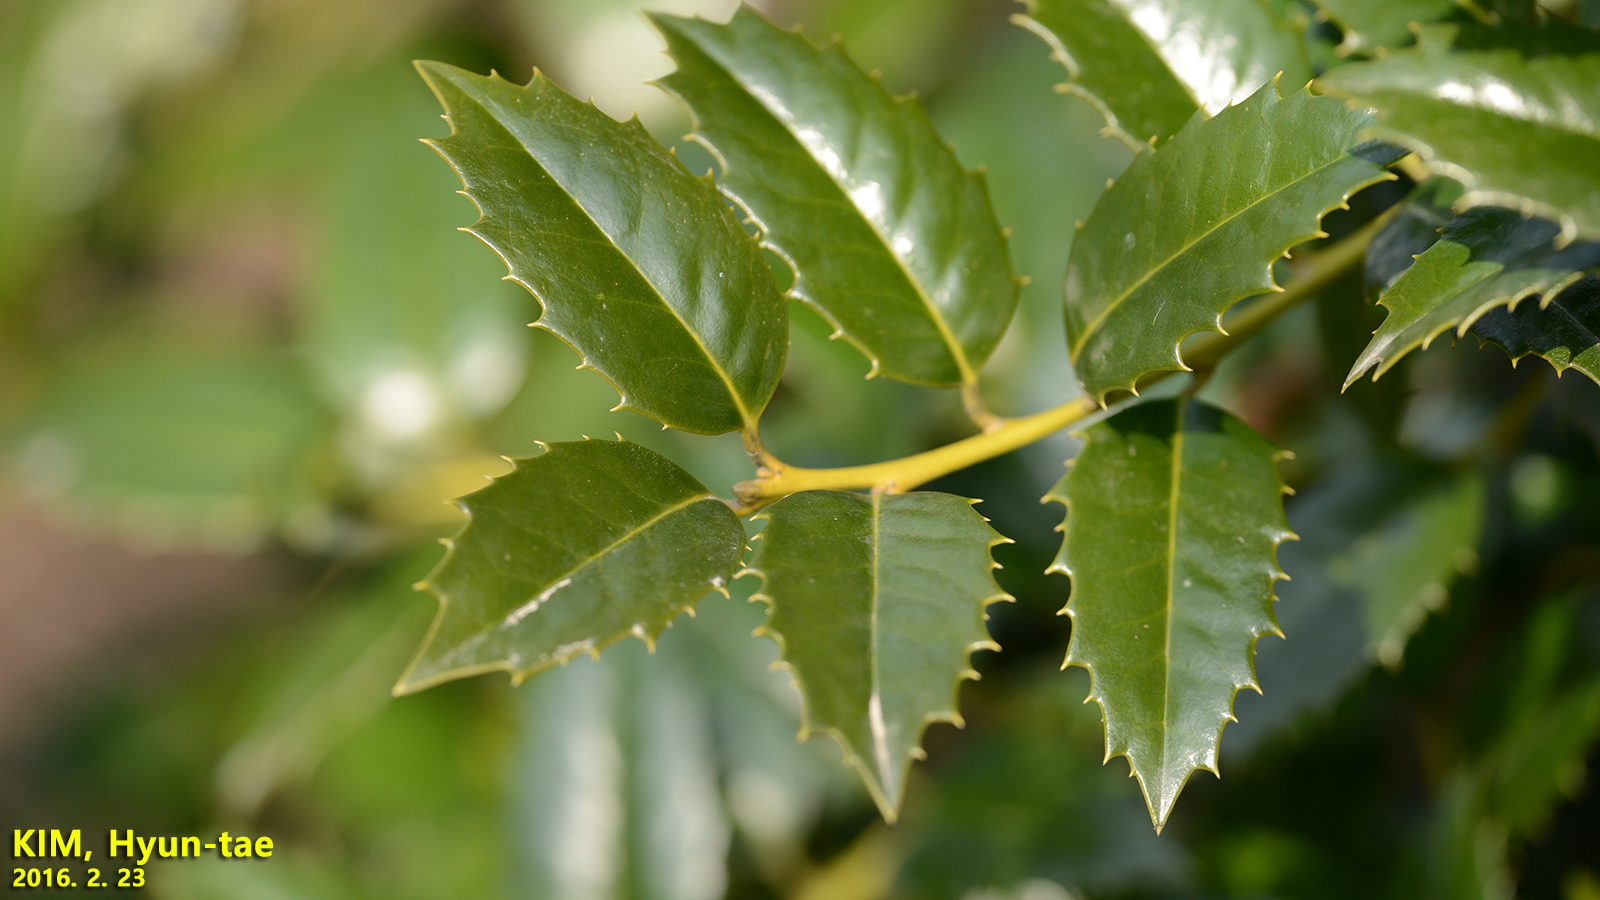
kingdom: Plantae
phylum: Tracheophyta
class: Magnoliopsida
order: Aquifoliales
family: Aquifoliaceae
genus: Ilex
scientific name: Ilex aquifolium
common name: English holly
